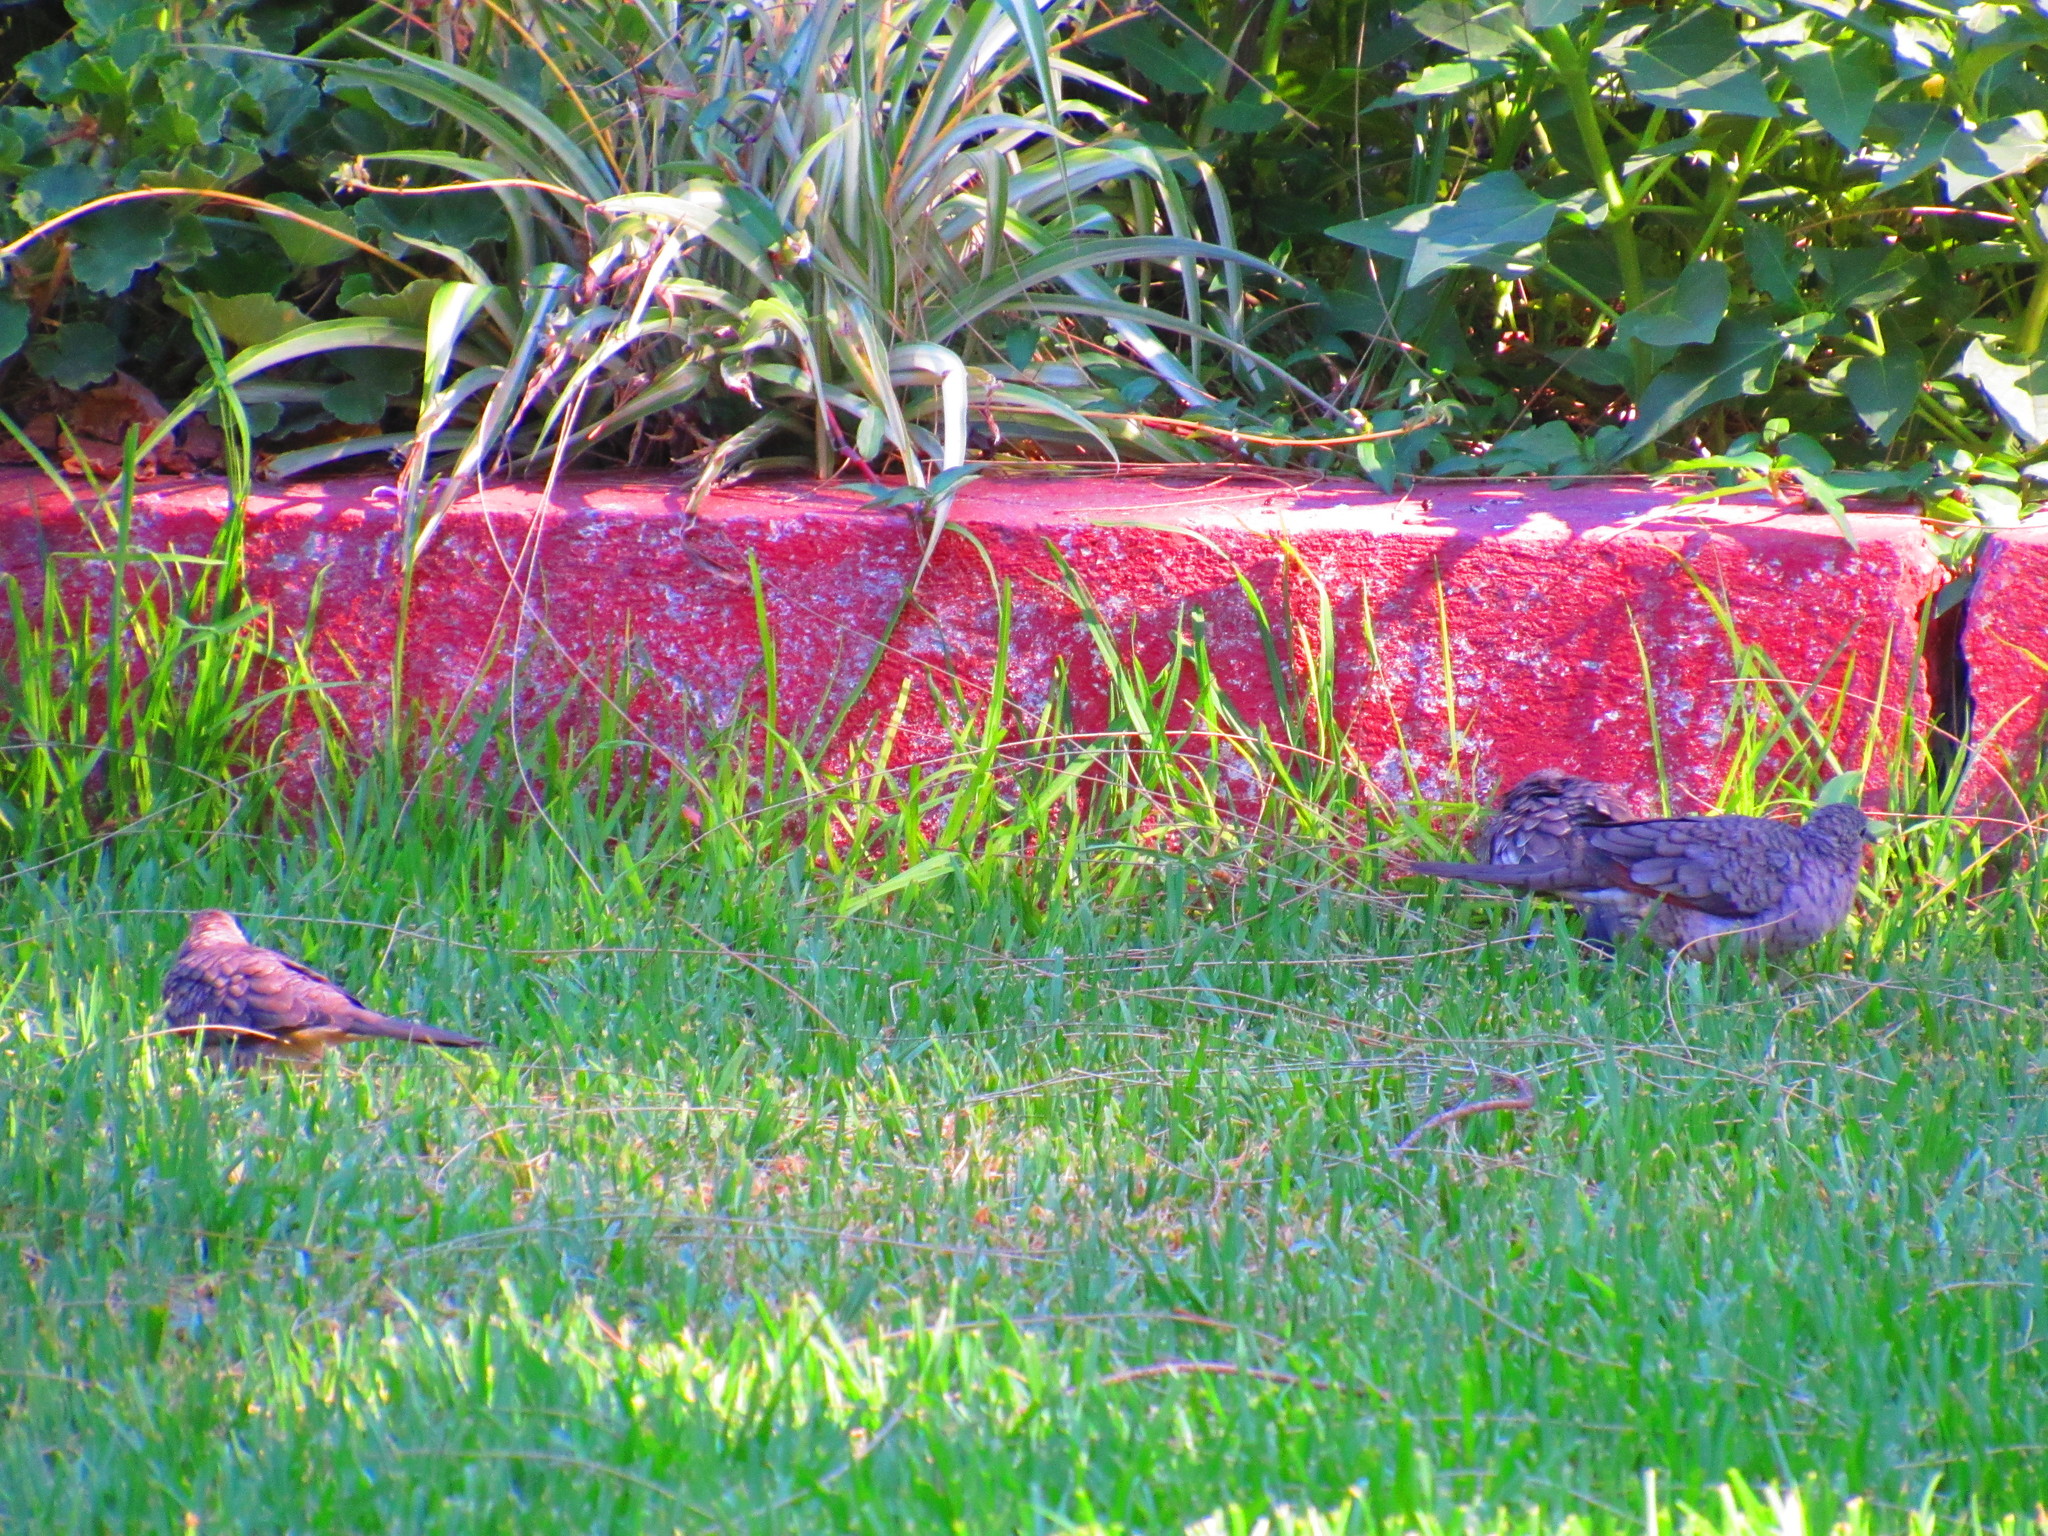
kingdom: Animalia
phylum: Chordata
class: Aves
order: Columbiformes
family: Columbidae
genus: Columbina
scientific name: Columbina inca
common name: Inca dove
